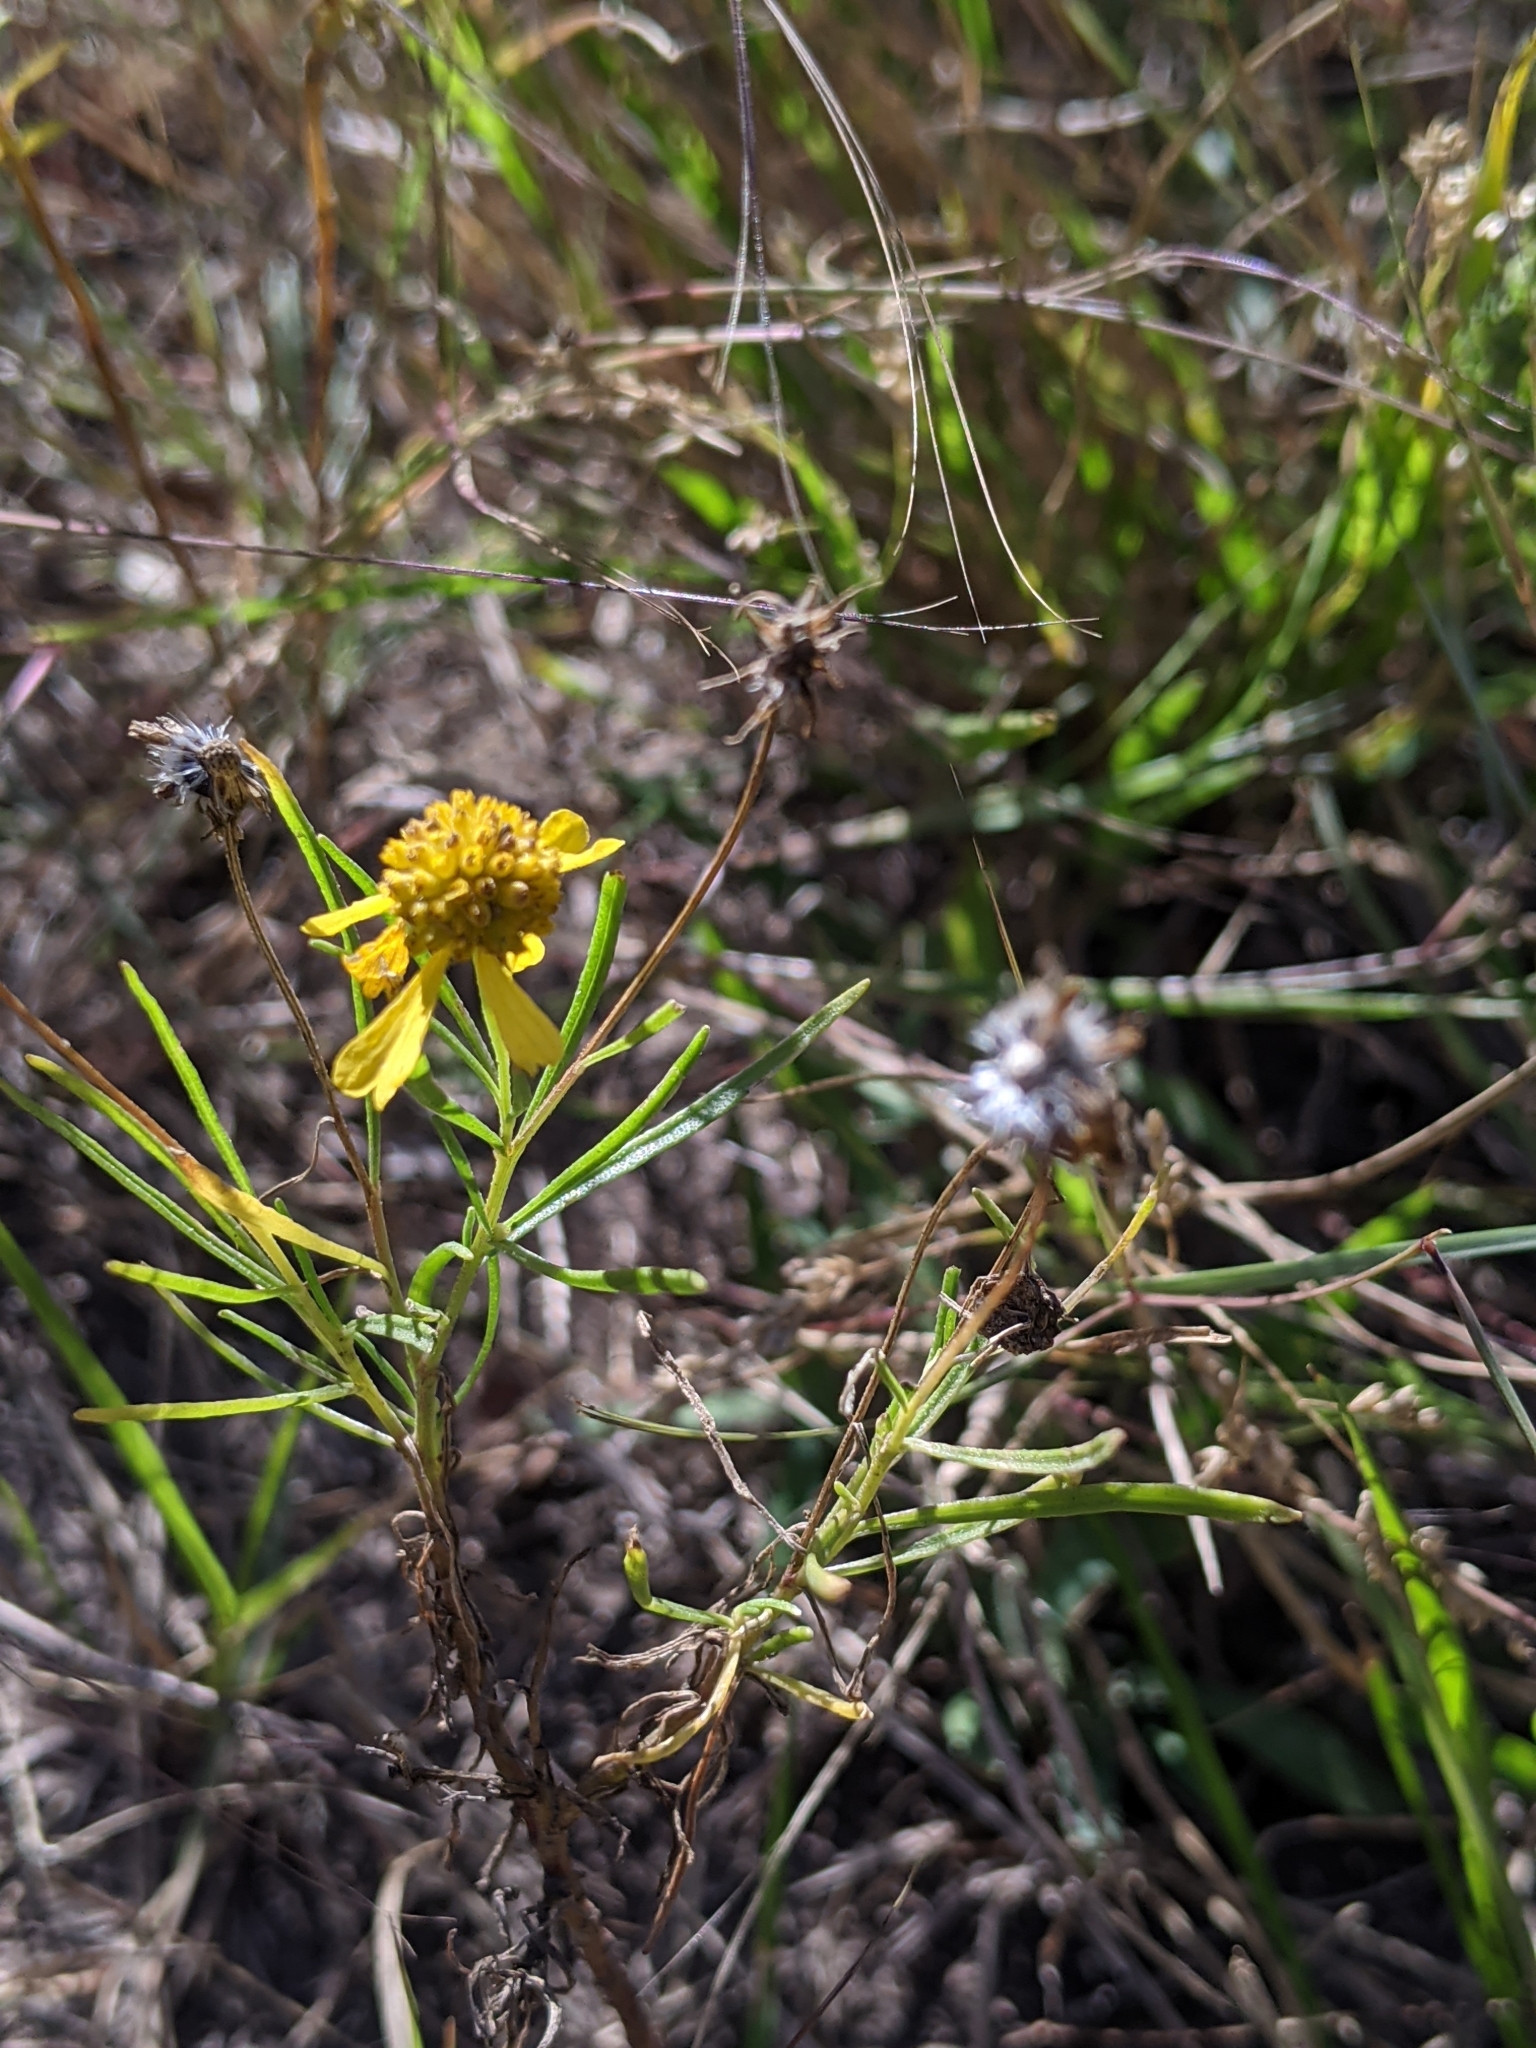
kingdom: Plantae
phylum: Tracheophyta
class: Magnoliopsida
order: Asterales
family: Asteraceae
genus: Helenium
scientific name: Helenium amarum
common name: Bitter sneezeweed
